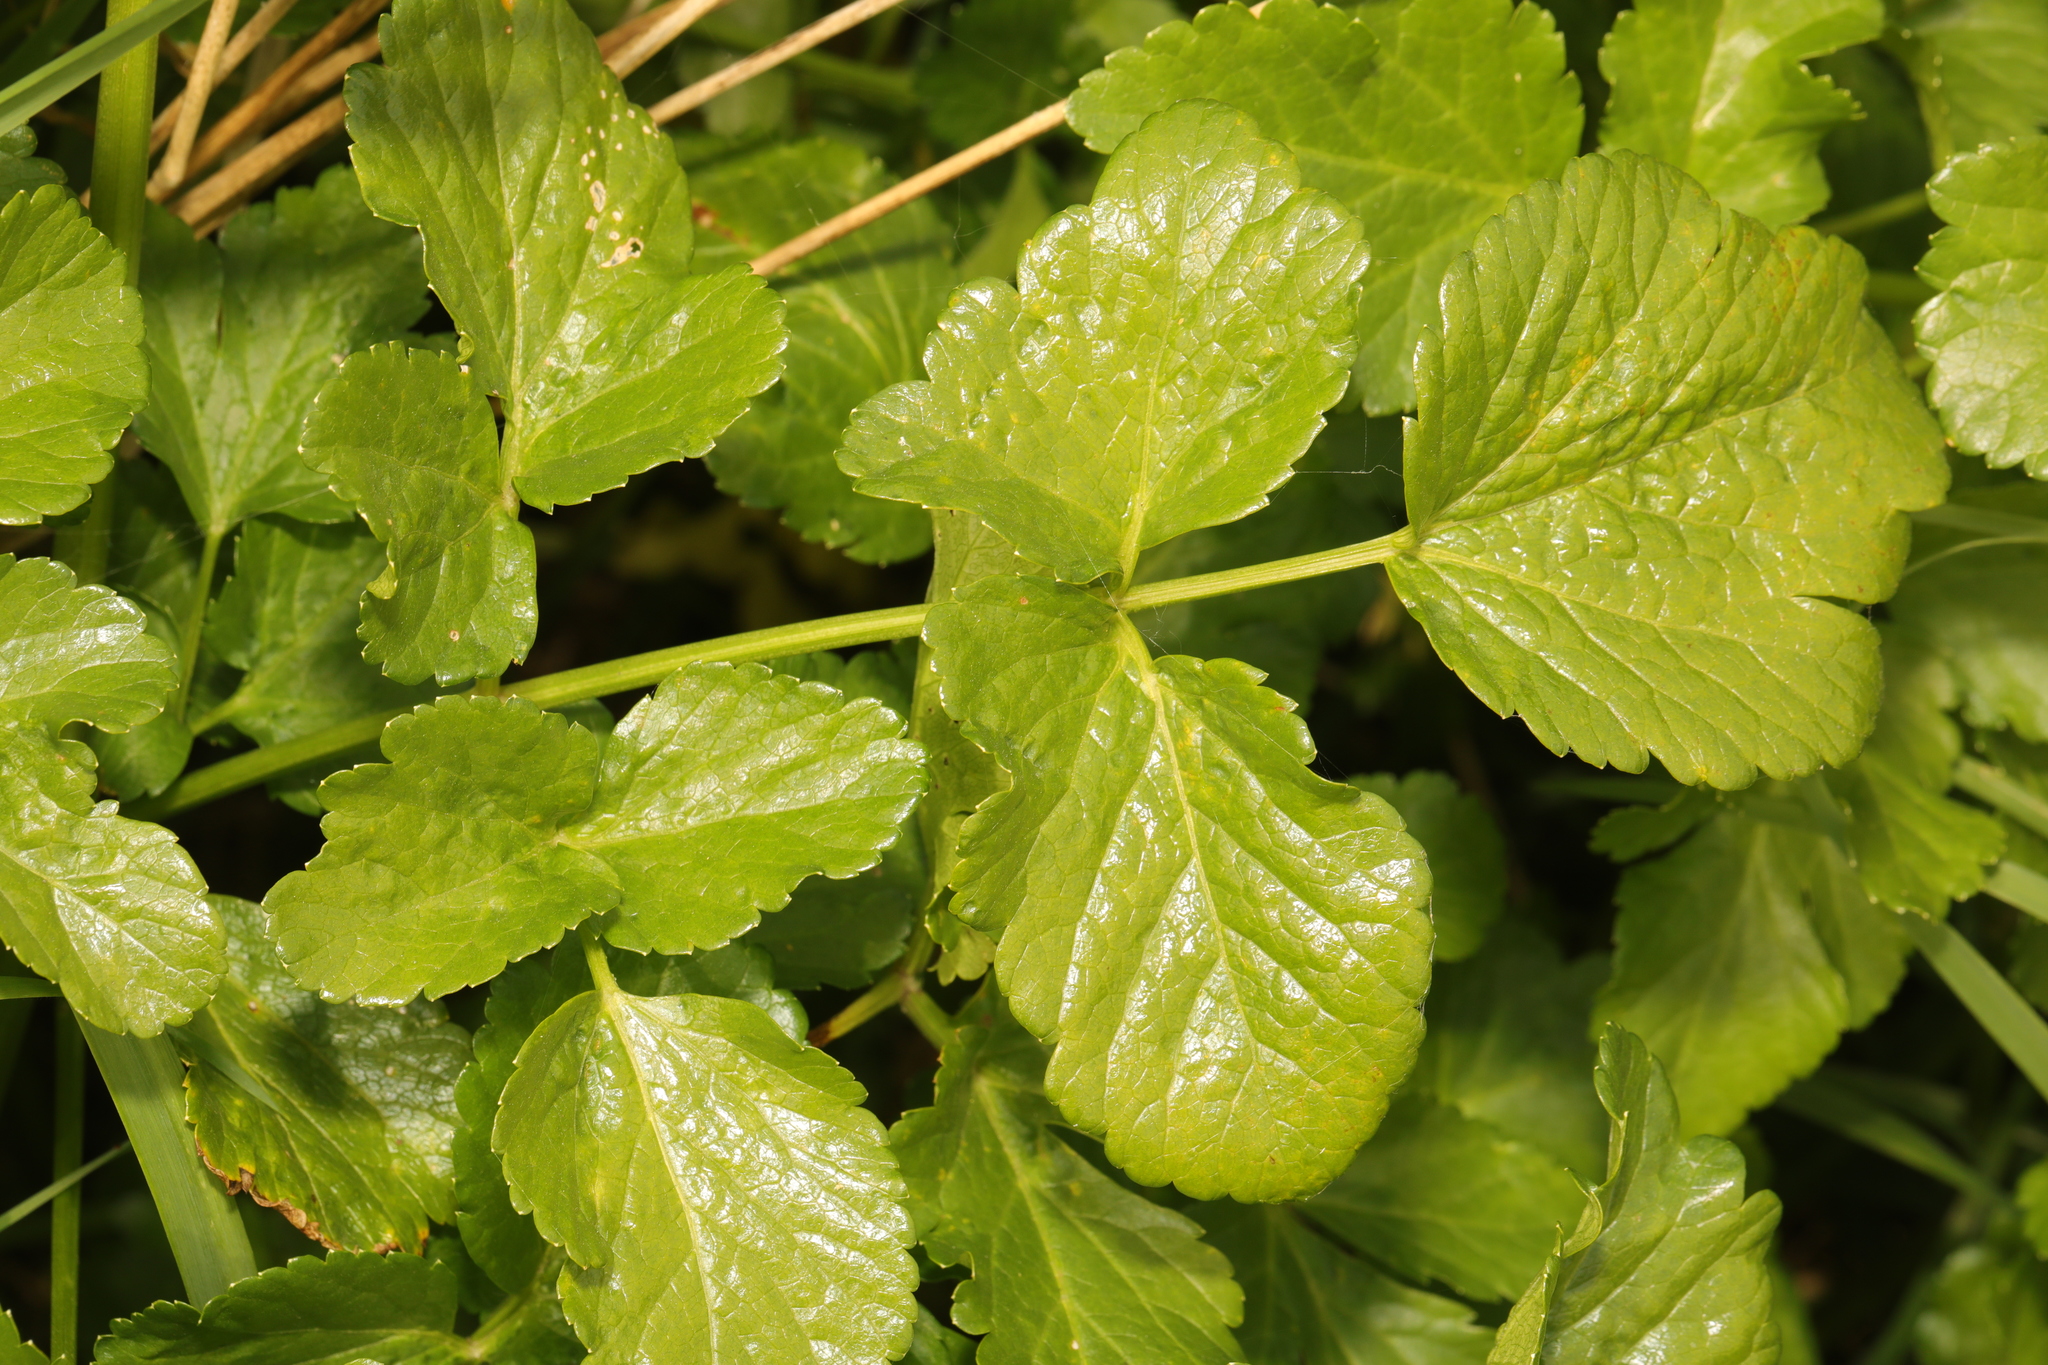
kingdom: Plantae
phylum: Tracheophyta
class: Magnoliopsida
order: Apiales
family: Apiaceae
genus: Smyrnium
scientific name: Smyrnium olusatrum
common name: Alexanders
